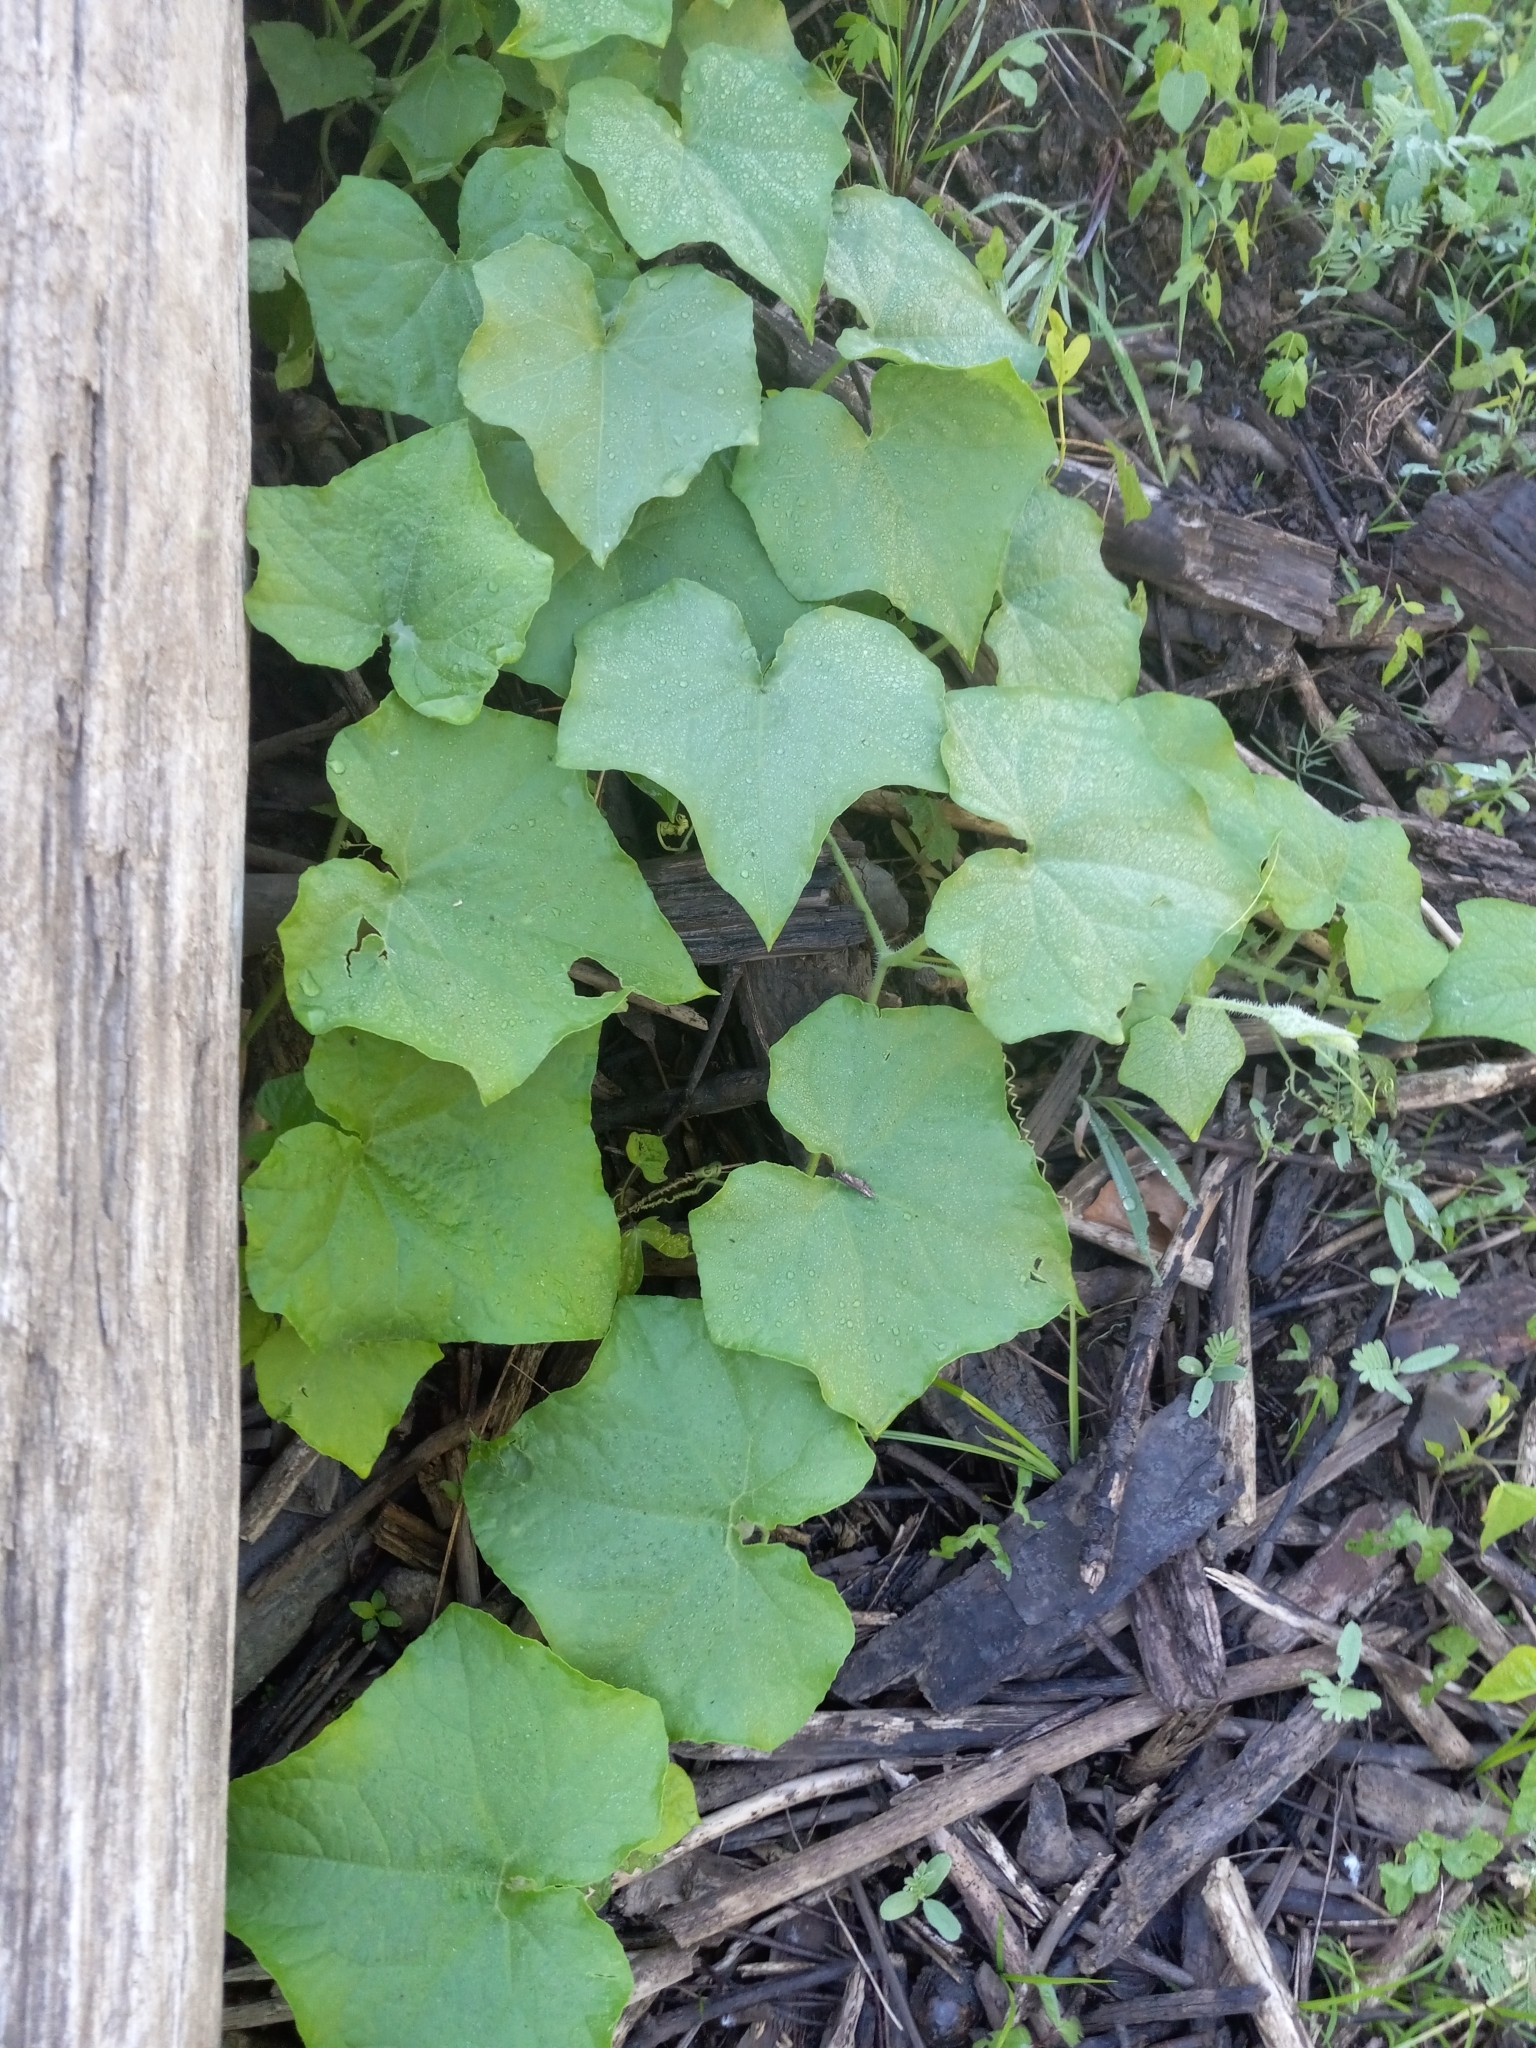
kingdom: Plantae
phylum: Tracheophyta
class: Magnoliopsida
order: Cucurbitales
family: Cucurbitaceae
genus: Sicyos
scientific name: Sicyos angulatus
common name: Angled burr cucumber
